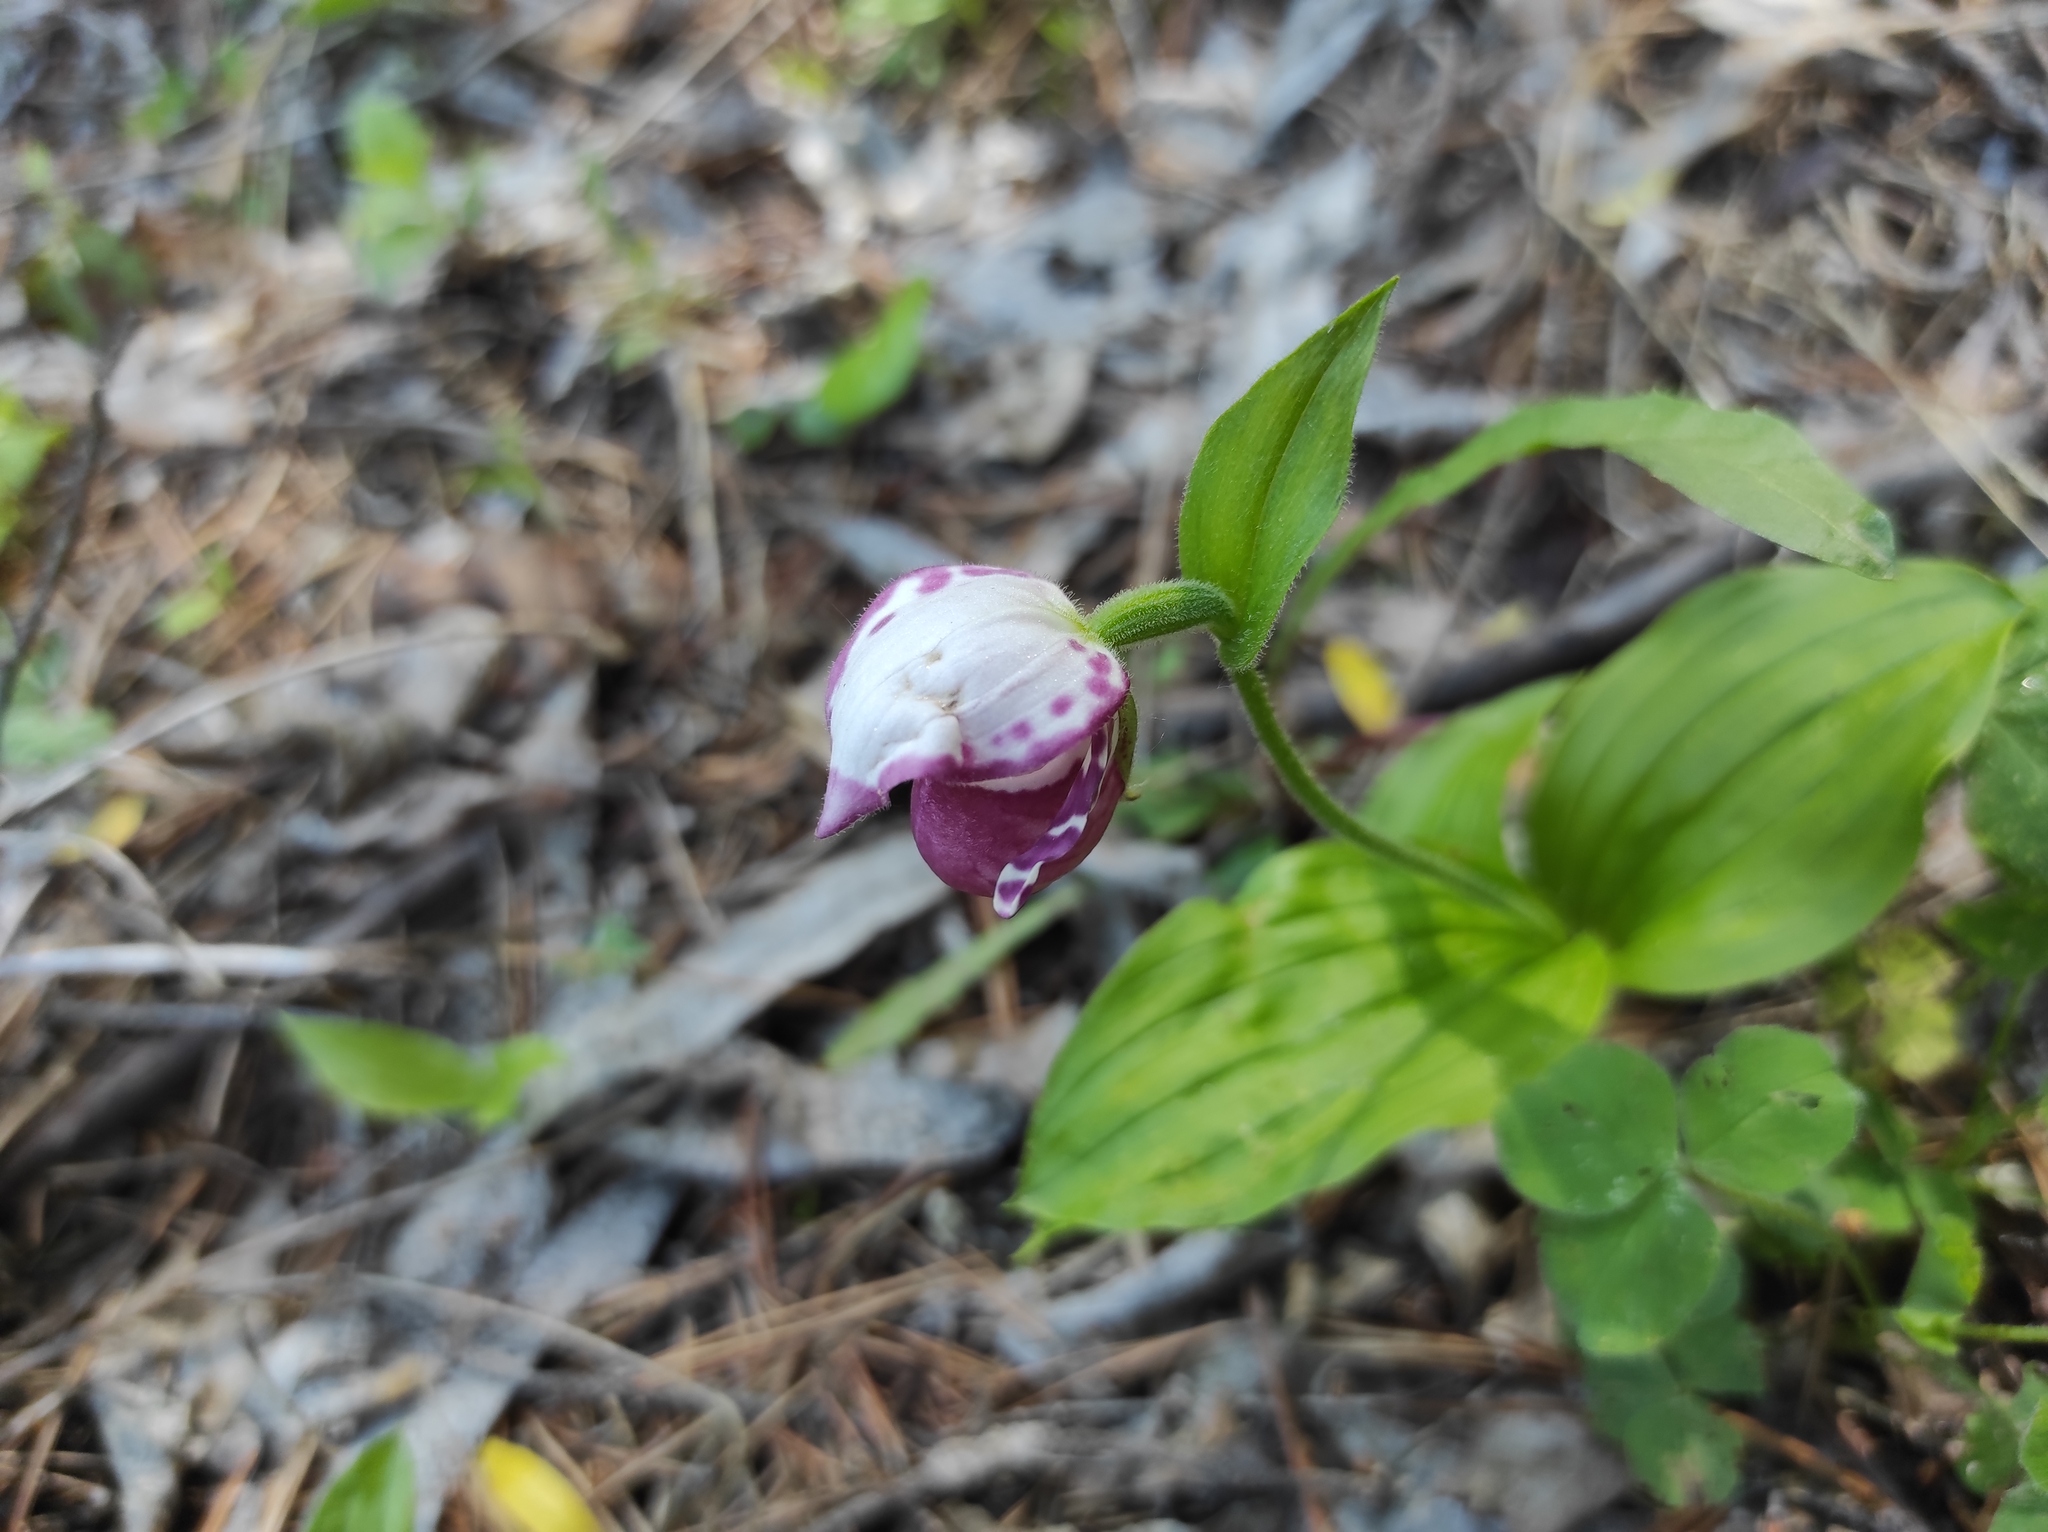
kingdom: Plantae
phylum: Tracheophyta
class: Liliopsida
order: Asparagales
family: Orchidaceae
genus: Cypripedium
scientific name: Cypripedium guttatum
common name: Pink lady slipper
